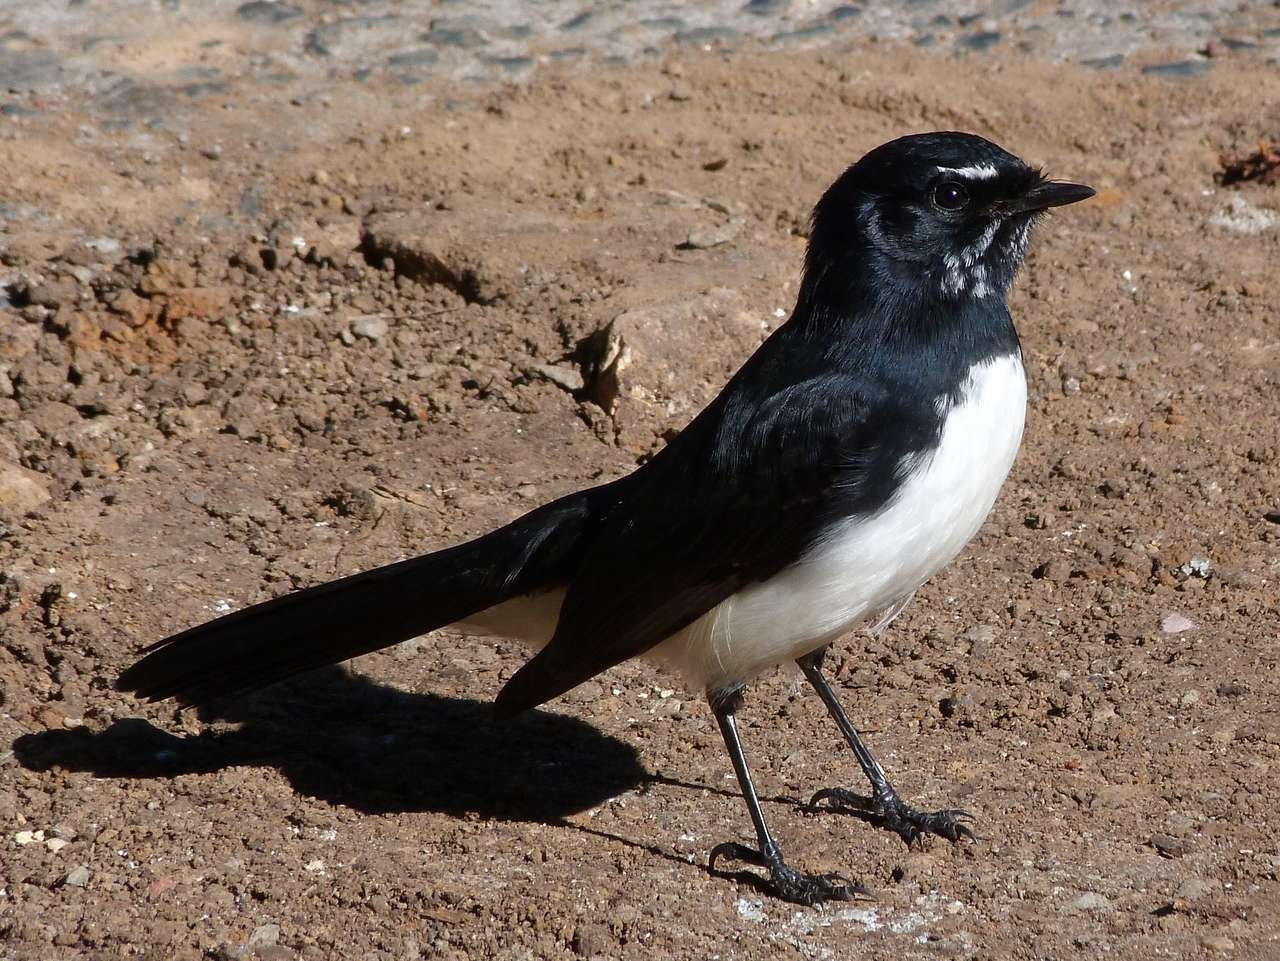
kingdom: Animalia
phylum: Chordata
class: Aves
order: Passeriformes
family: Rhipiduridae
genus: Rhipidura
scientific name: Rhipidura leucophrys
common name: Willie wagtail
